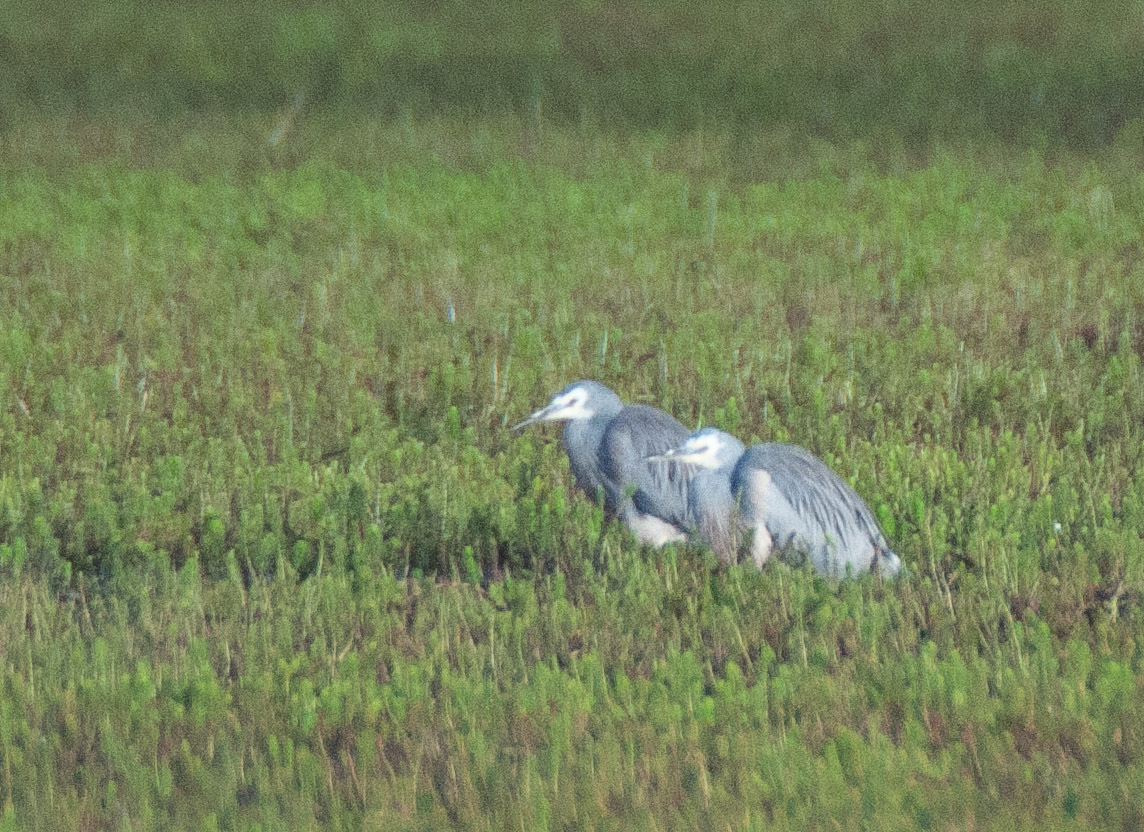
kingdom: Animalia
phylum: Chordata
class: Aves
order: Pelecaniformes
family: Ardeidae
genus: Egretta
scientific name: Egretta novaehollandiae
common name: White-faced heron
